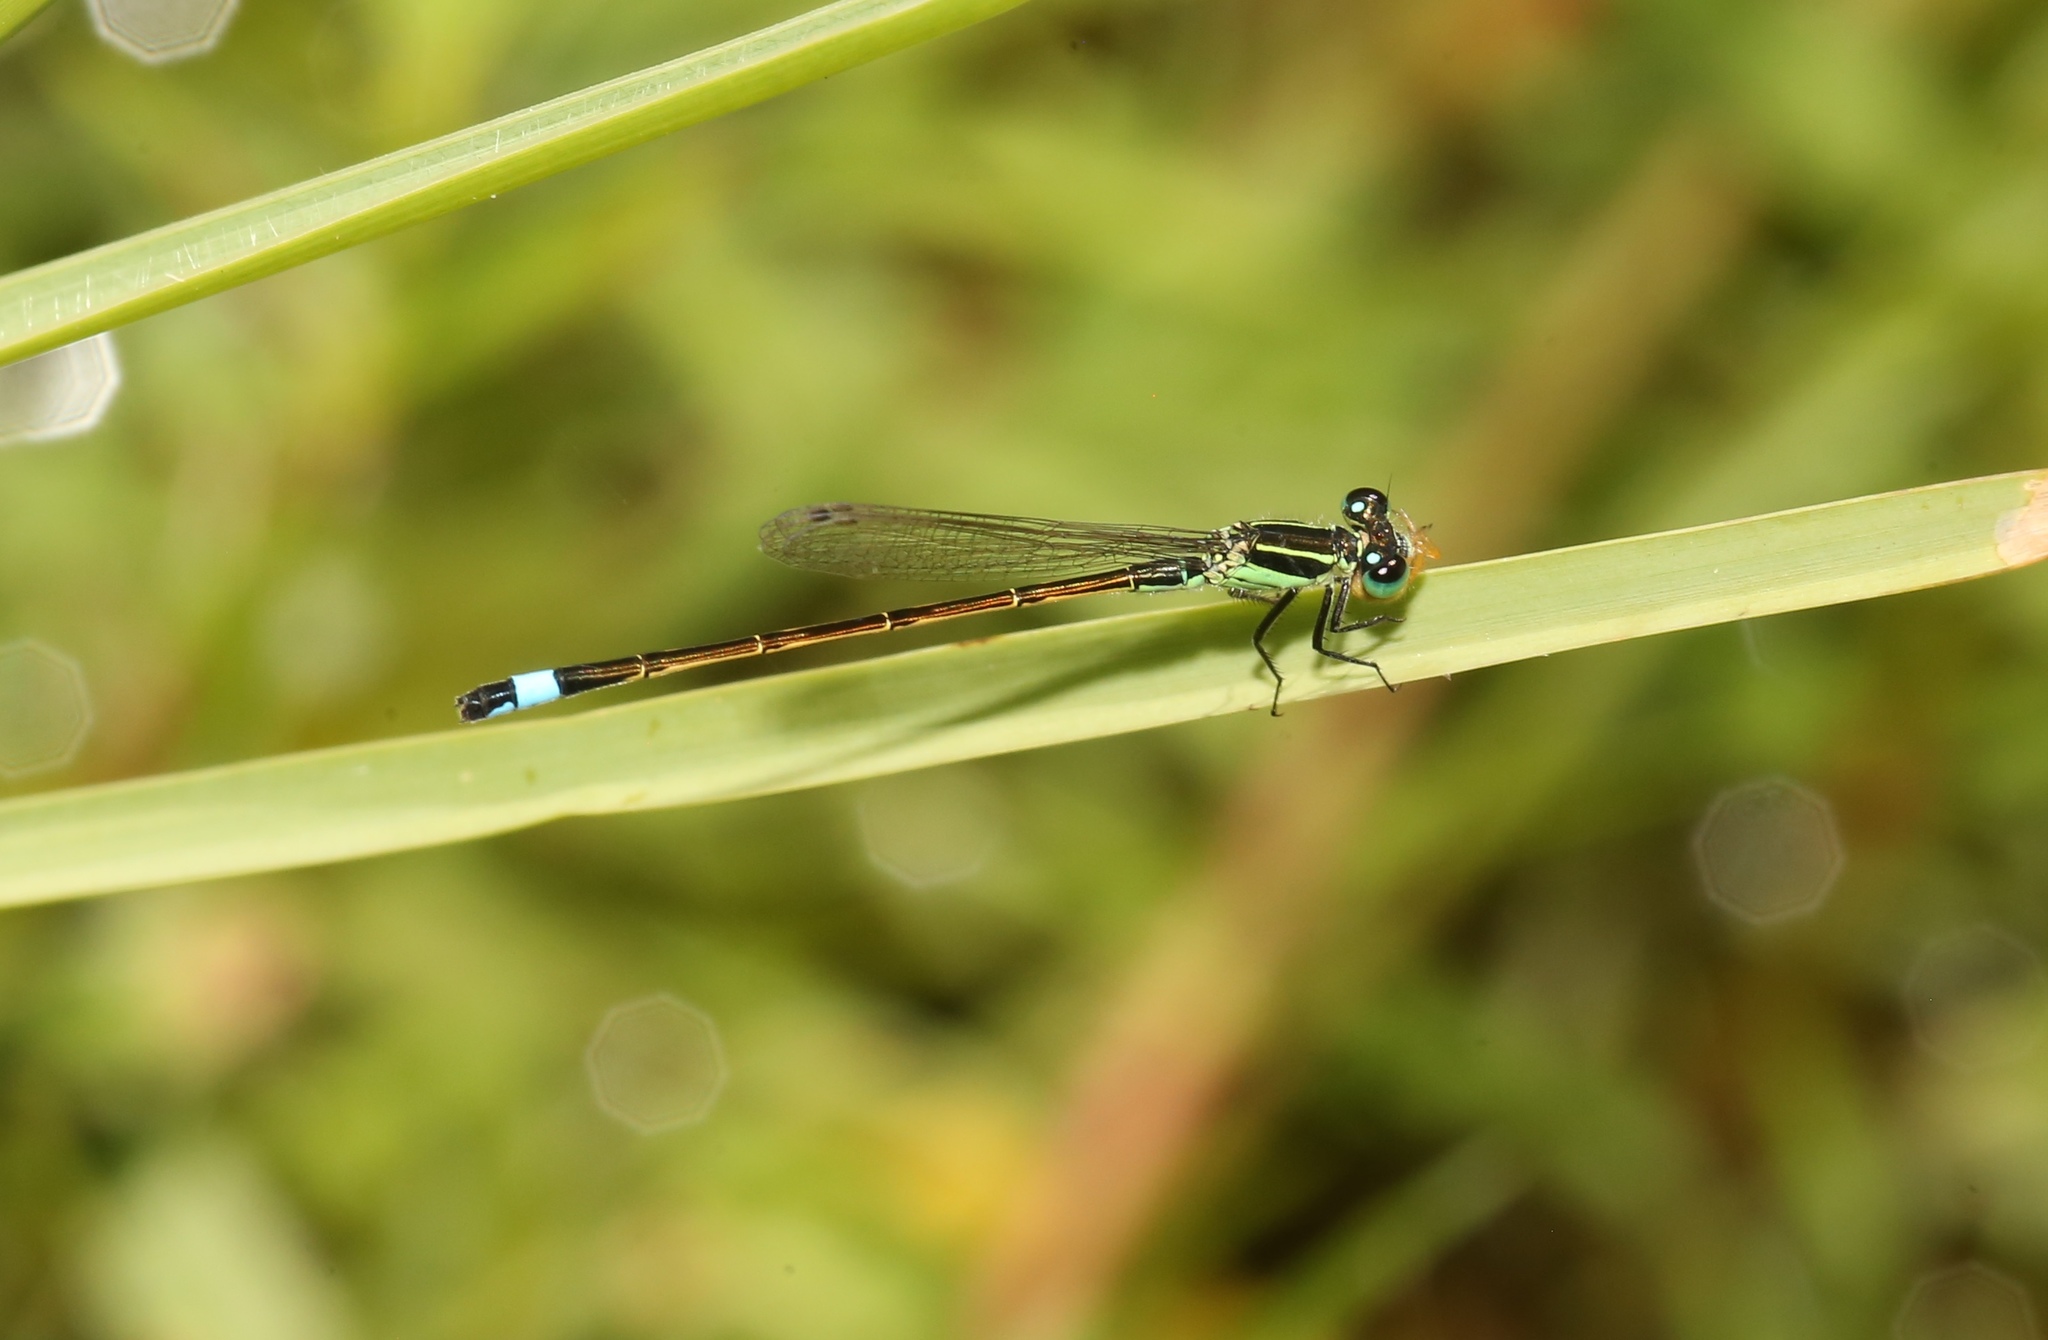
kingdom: Animalia
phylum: Arthropoda
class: Insecta
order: Odonata
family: Coenagrionidae
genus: Ischnura
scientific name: Ischnura ramburii
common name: Rambur's forktail
